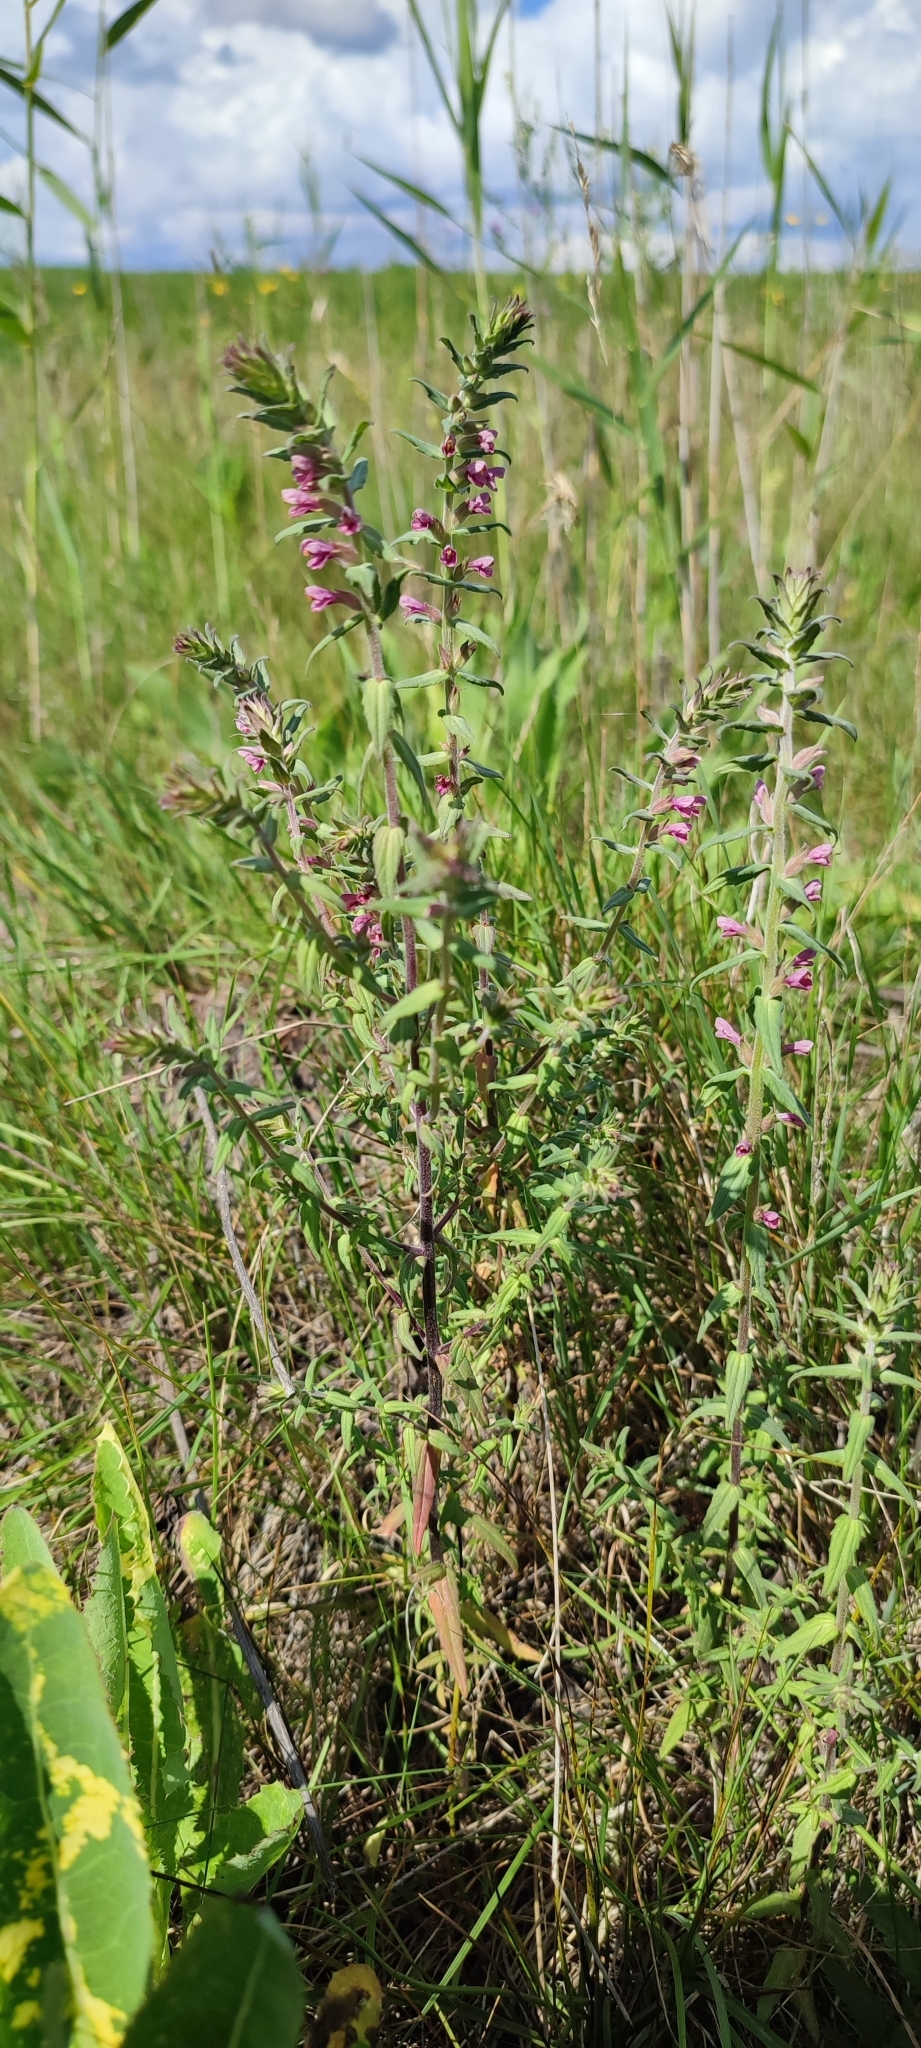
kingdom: Plantae
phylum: Tracheophyta
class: Magnoliopsida
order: Lamiales
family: Orobanchaceae
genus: Odontites
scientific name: Odontites vulgaris
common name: Broomrape
